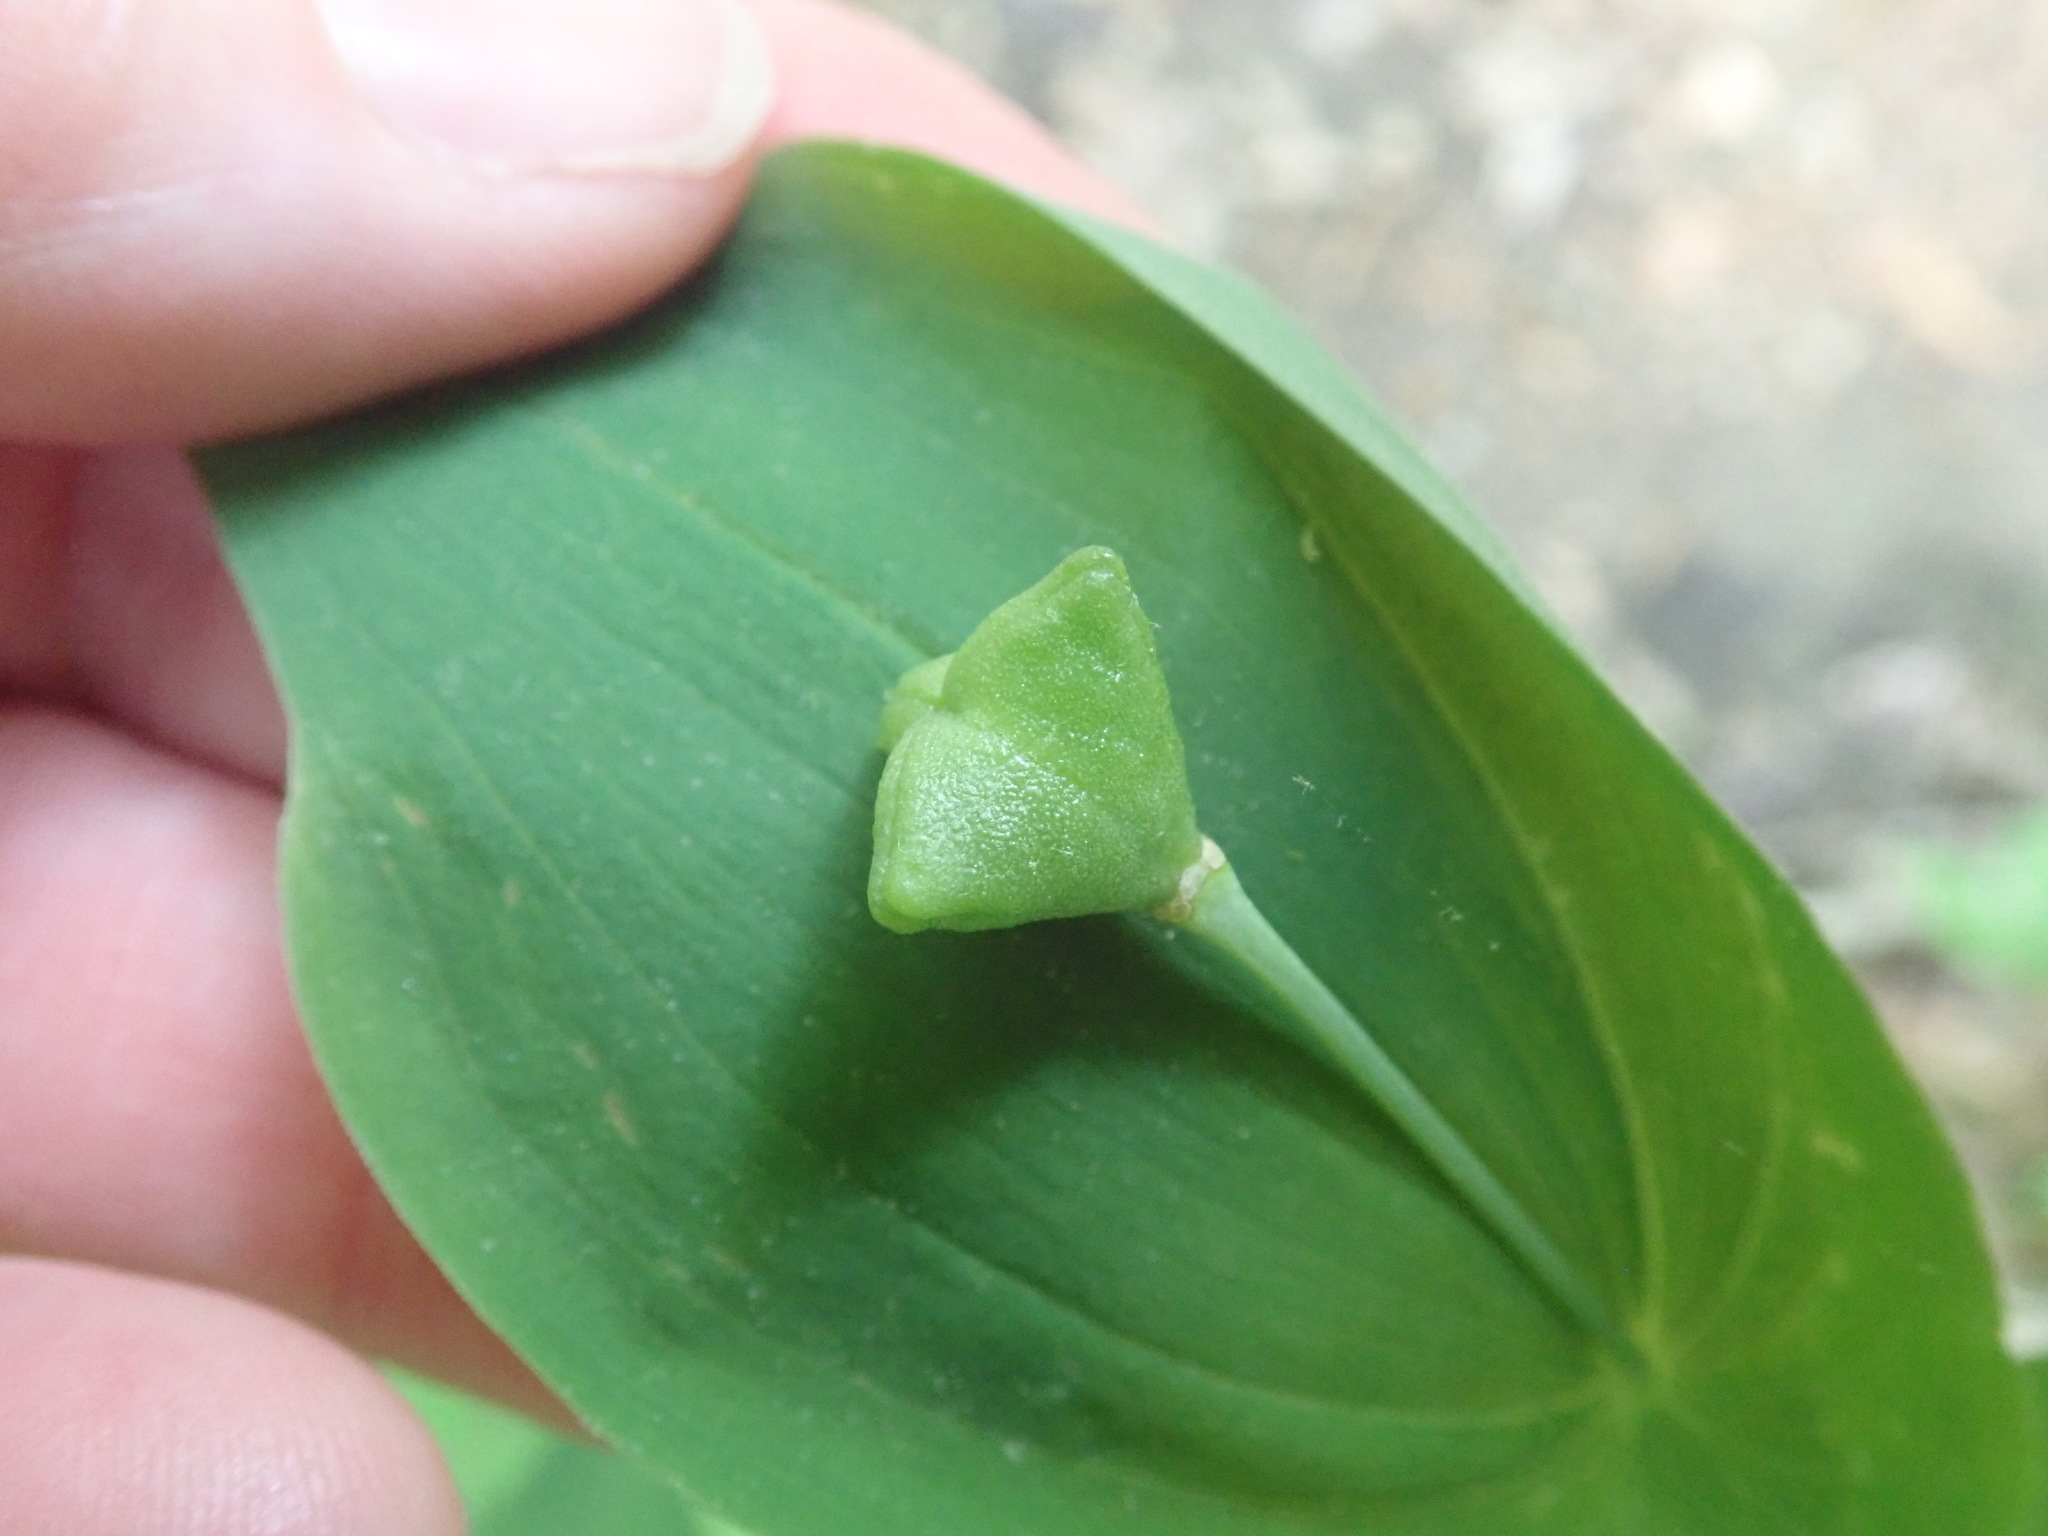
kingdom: Plantae
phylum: Tracheophyta
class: Liliopsida
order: Liliales
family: Colchicaceae
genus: Uvularia
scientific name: Uvularia grandiflora
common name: Bellwort
